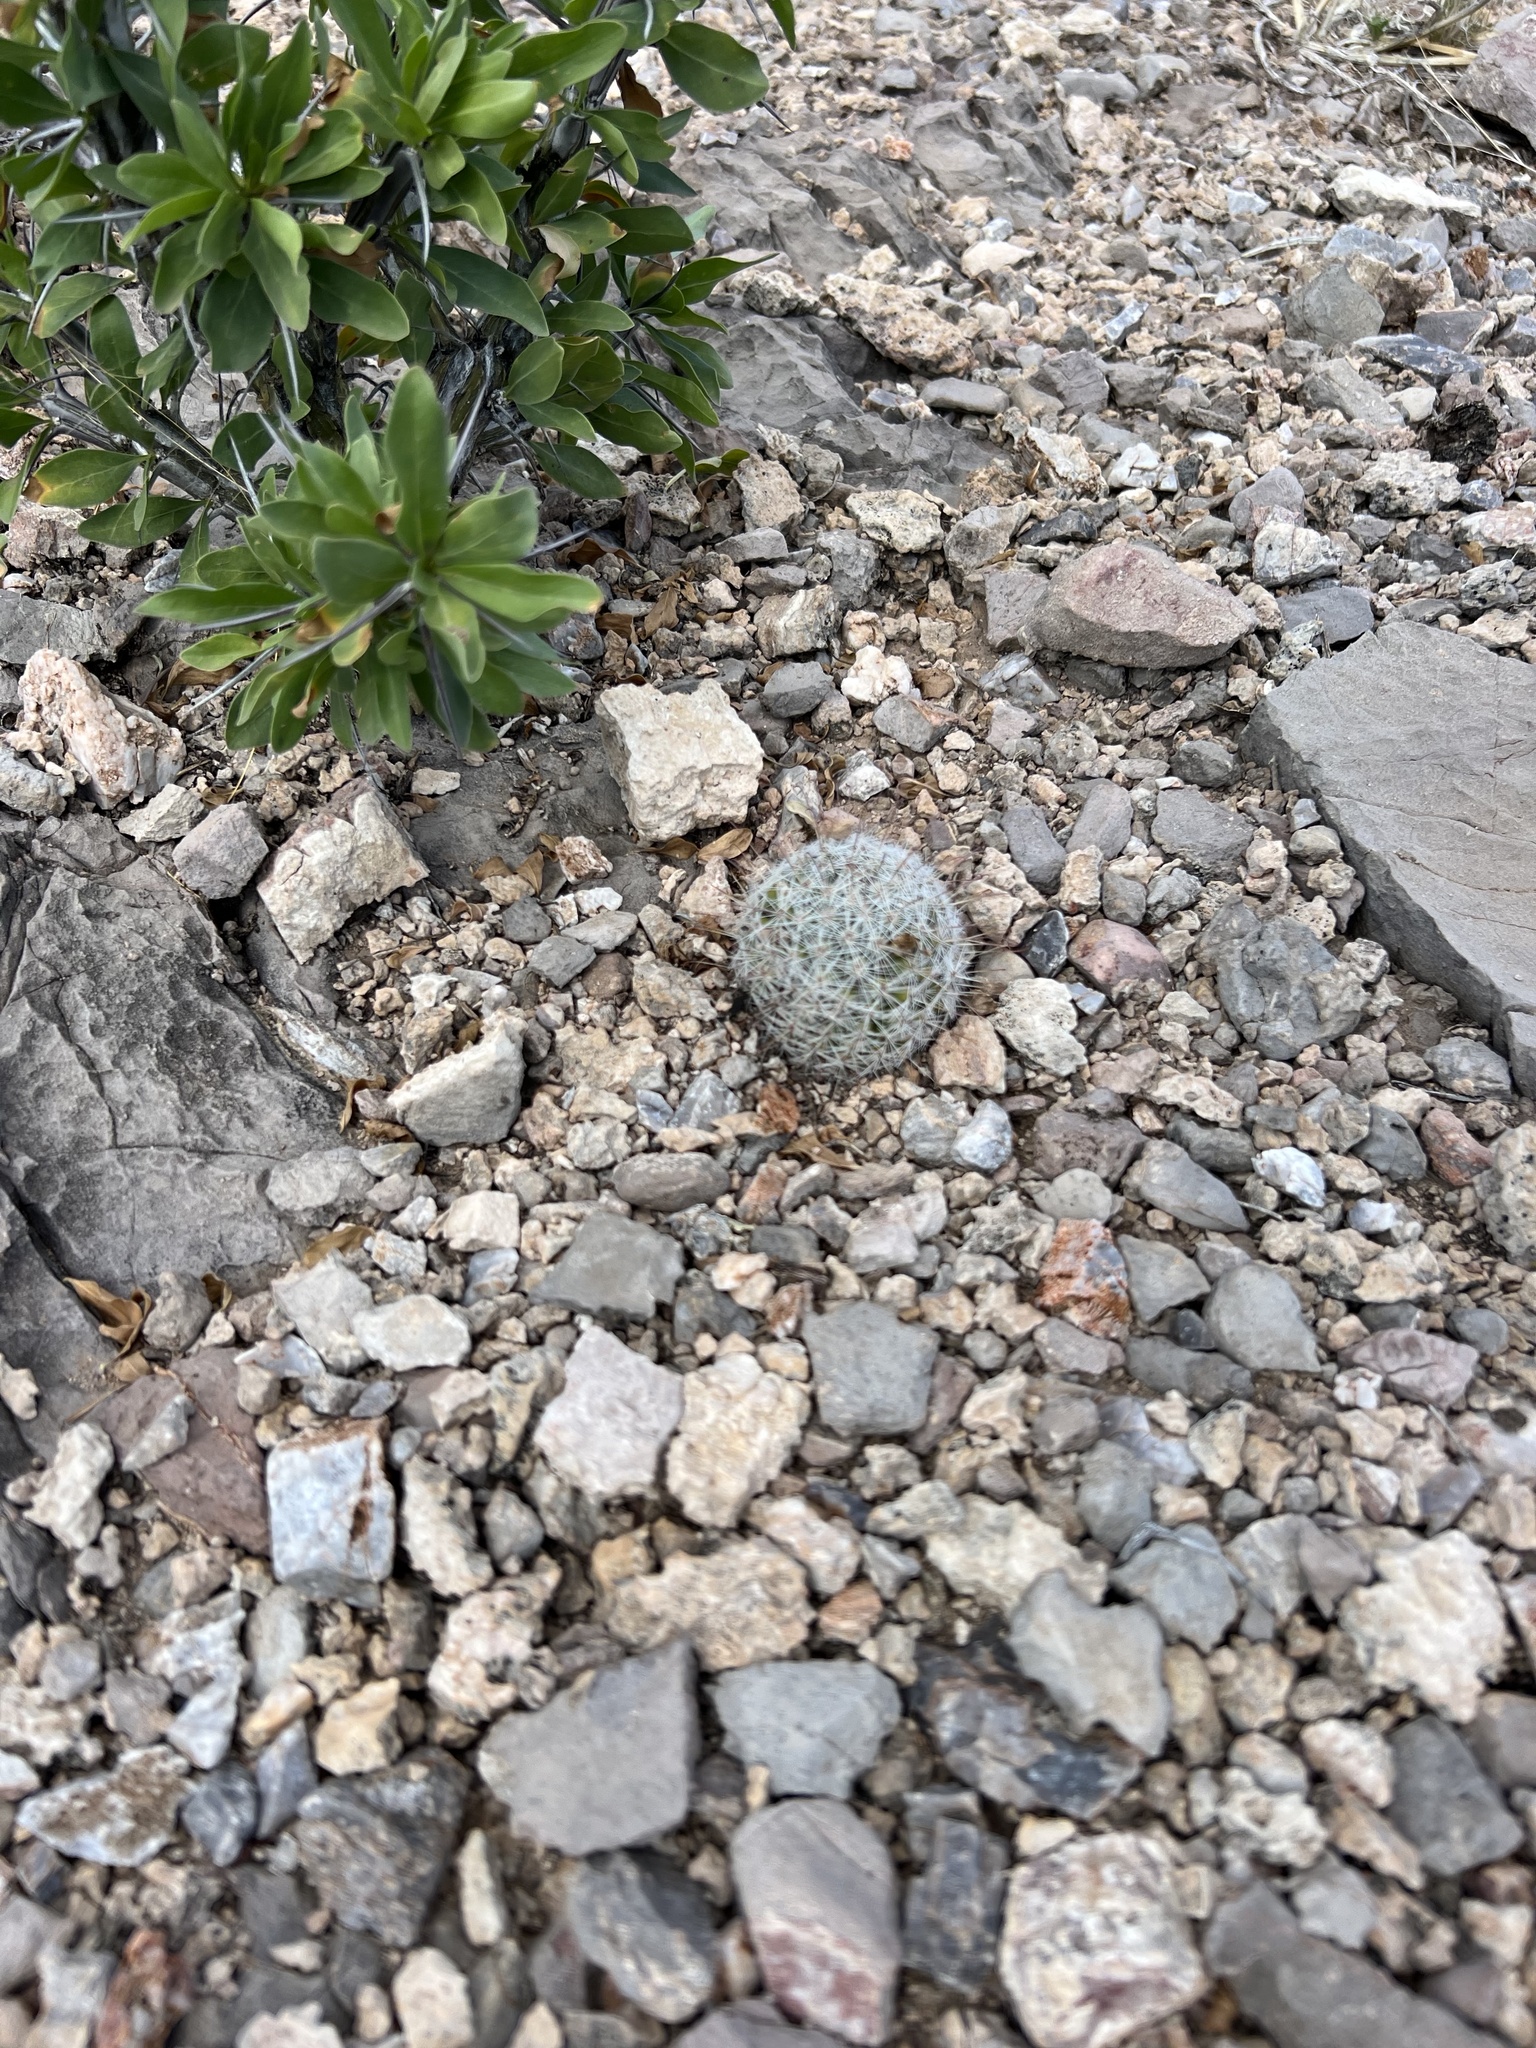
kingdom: Plantae
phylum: Tracheophyta
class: Magnoliopsida
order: Caryophyllales
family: Cactaceae
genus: Cochemiea
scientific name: Cochemiea grahamii
